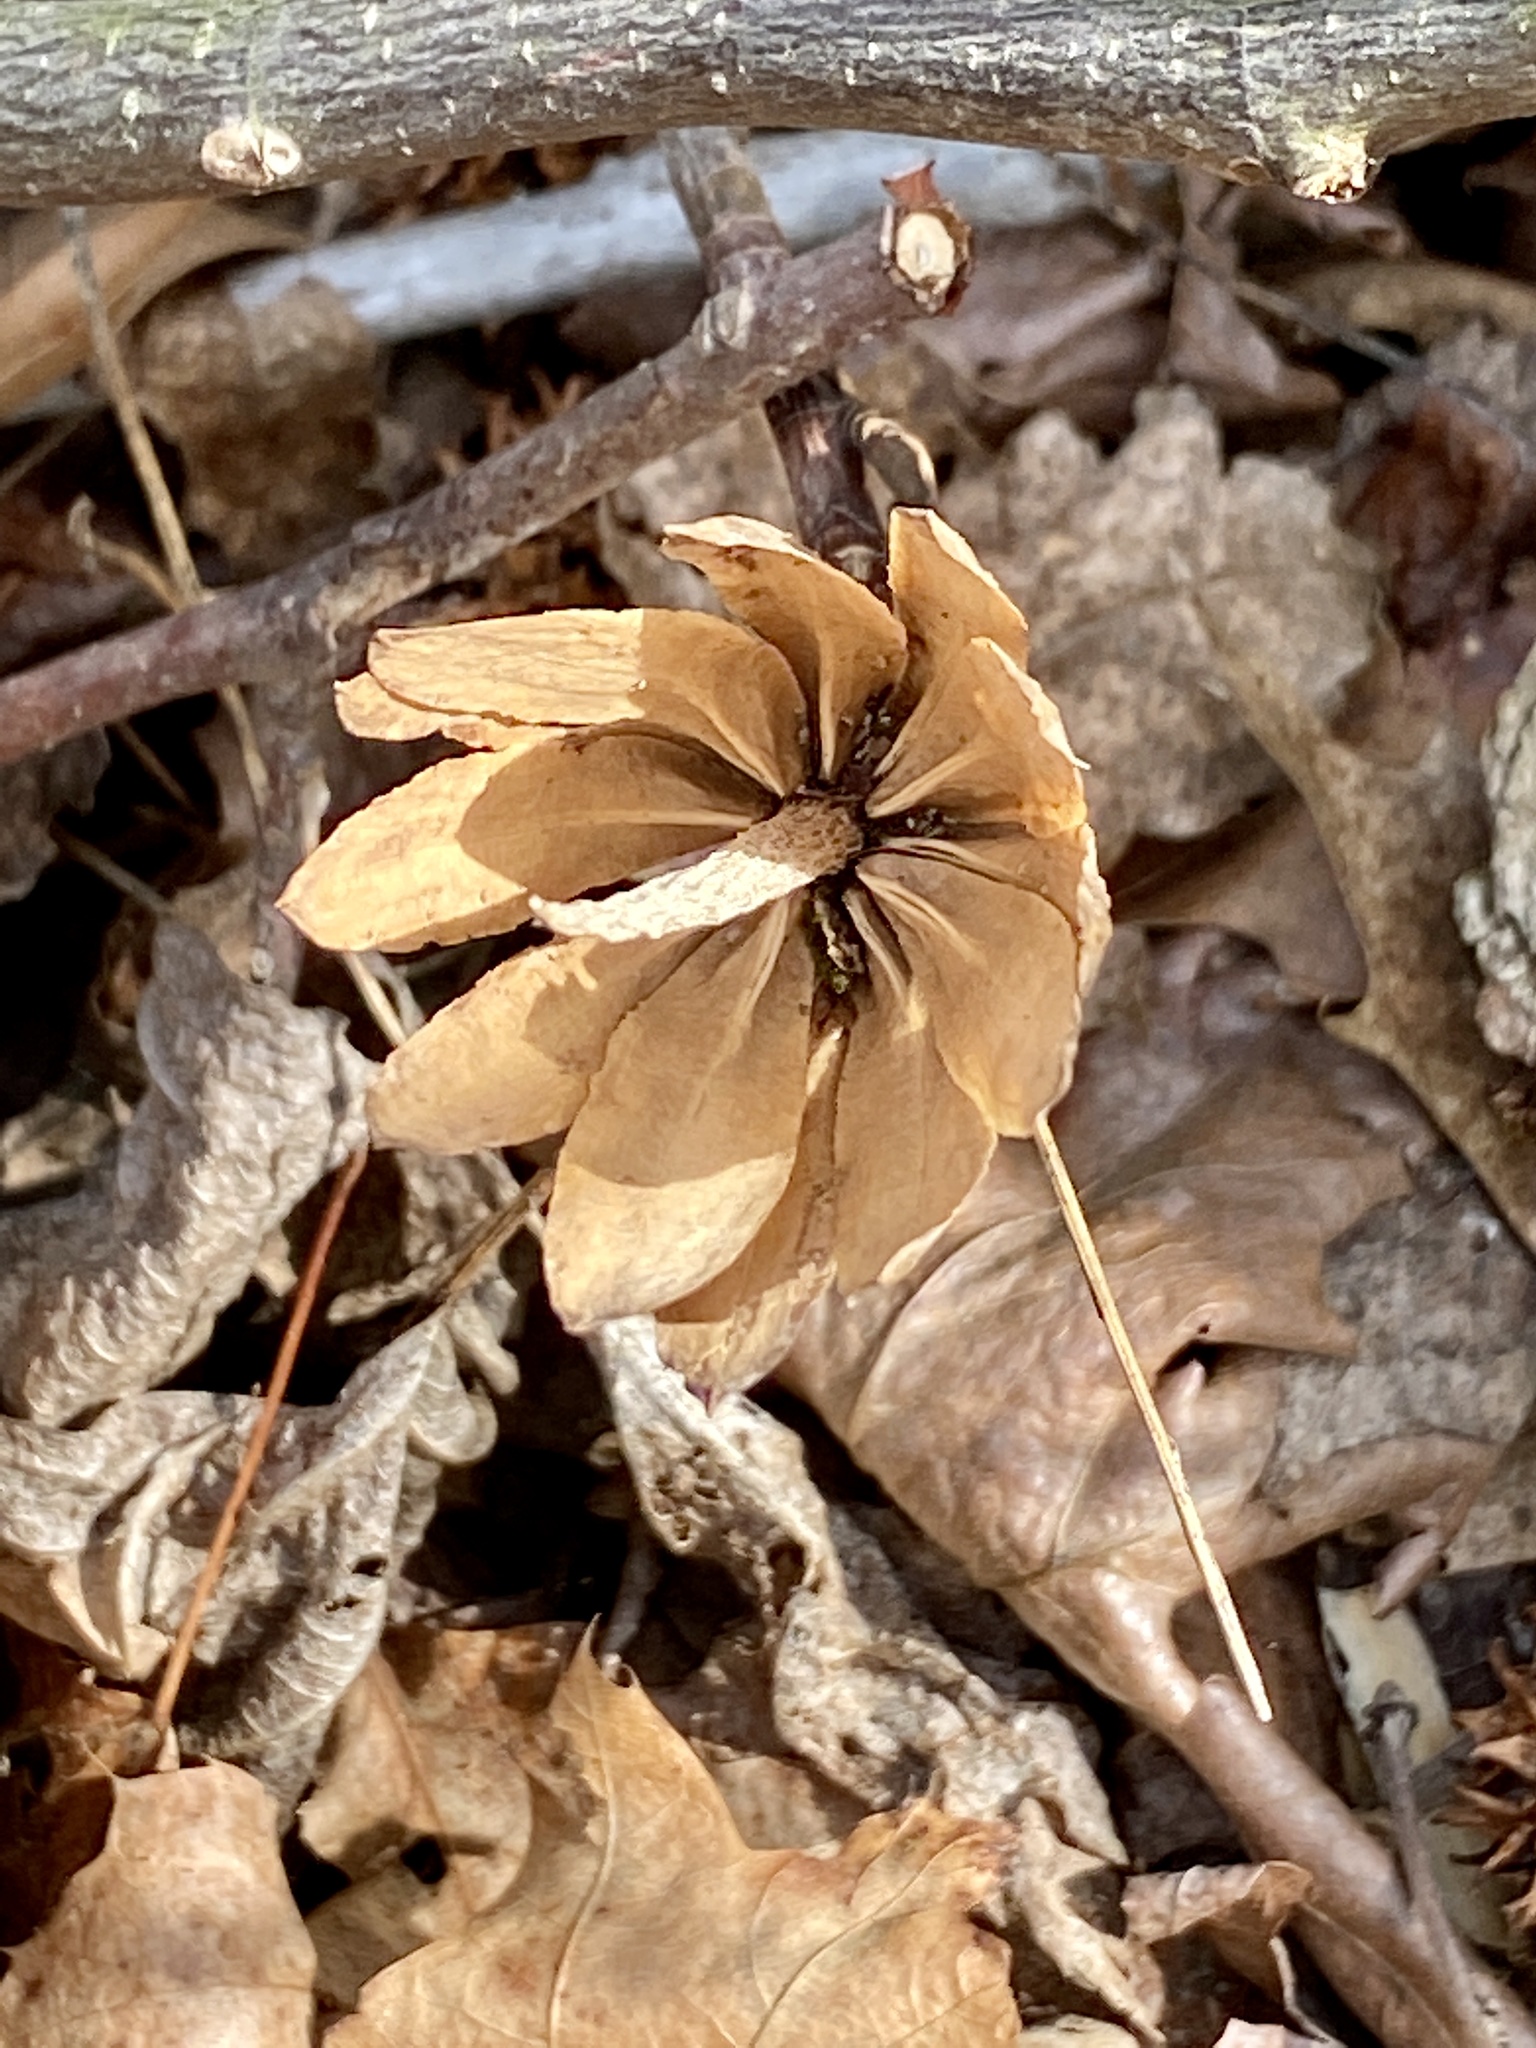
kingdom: Plantae
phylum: Tracheophyta
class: Magnoliopsida
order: Magnoliales
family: Magnoliaceae
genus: Liriodendron
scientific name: Liriodendron tulipifera
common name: Tulip tree
